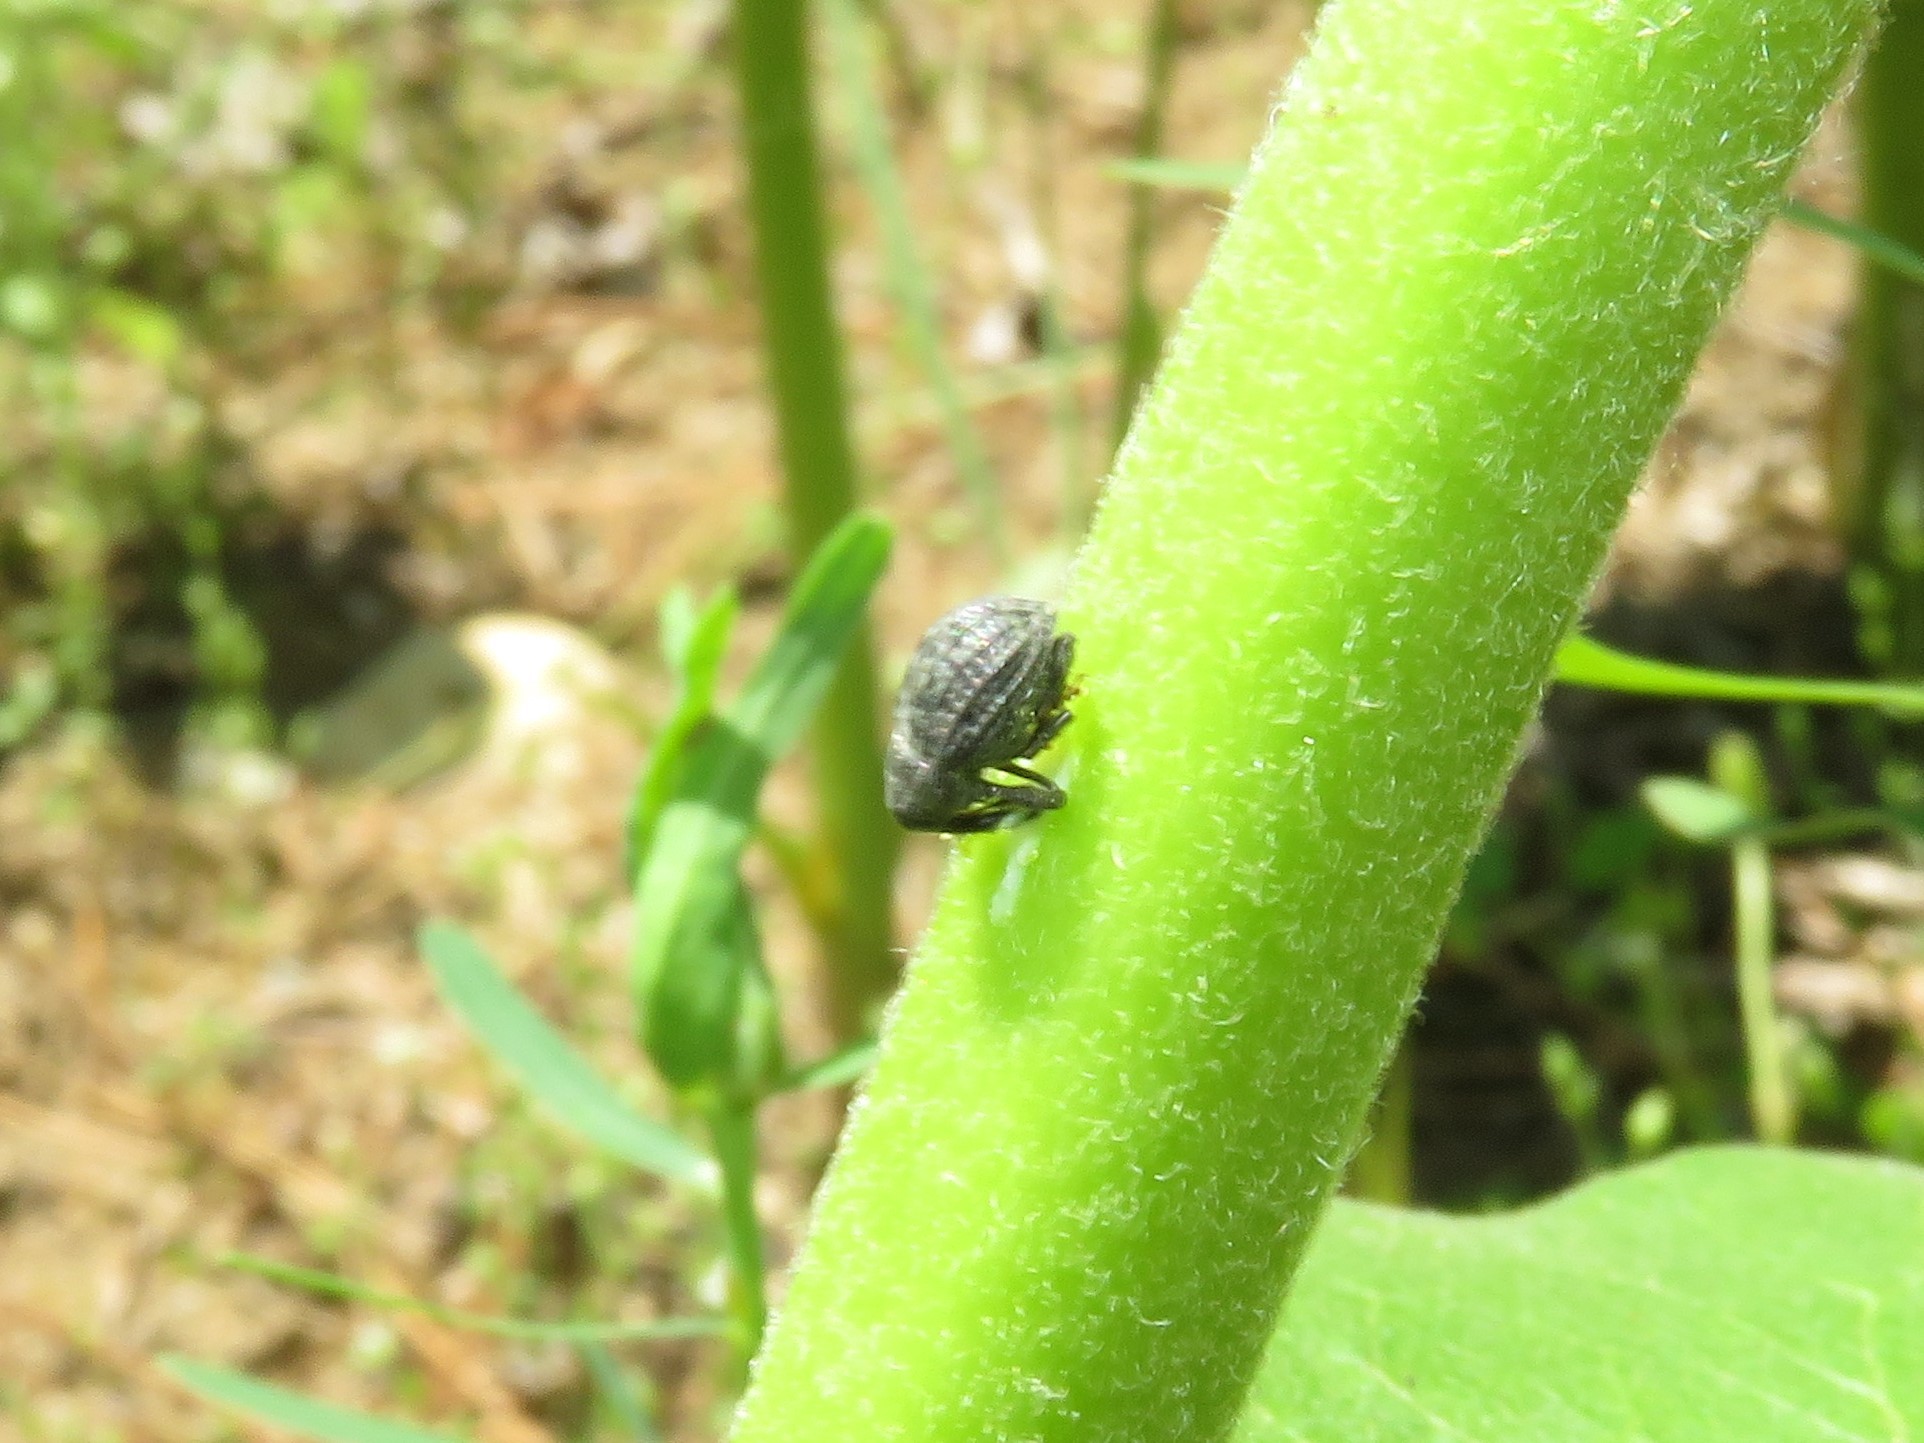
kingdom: Animalia
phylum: Arthropoda
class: Insecta
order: Coleoptera
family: Curculionidae
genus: Rhyssomatus
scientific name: Rhyssomatus lineaticollis
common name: Milkweed stem weevil
